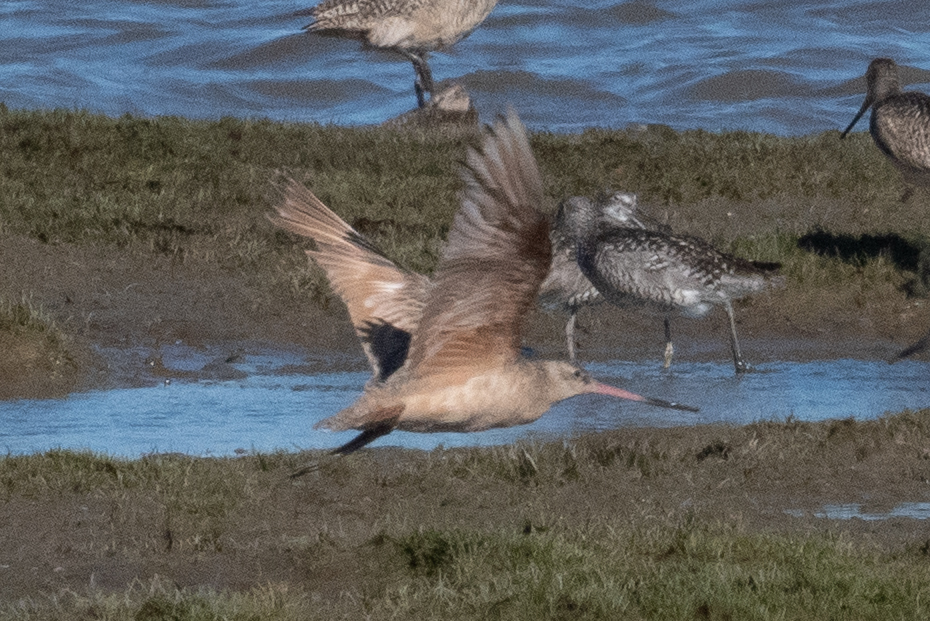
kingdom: Animalia
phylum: Chordata
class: Aves
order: Charadriiformes
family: Scolopacidae
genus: Limosa
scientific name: Limosa fedoa
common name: Marbled godwit
